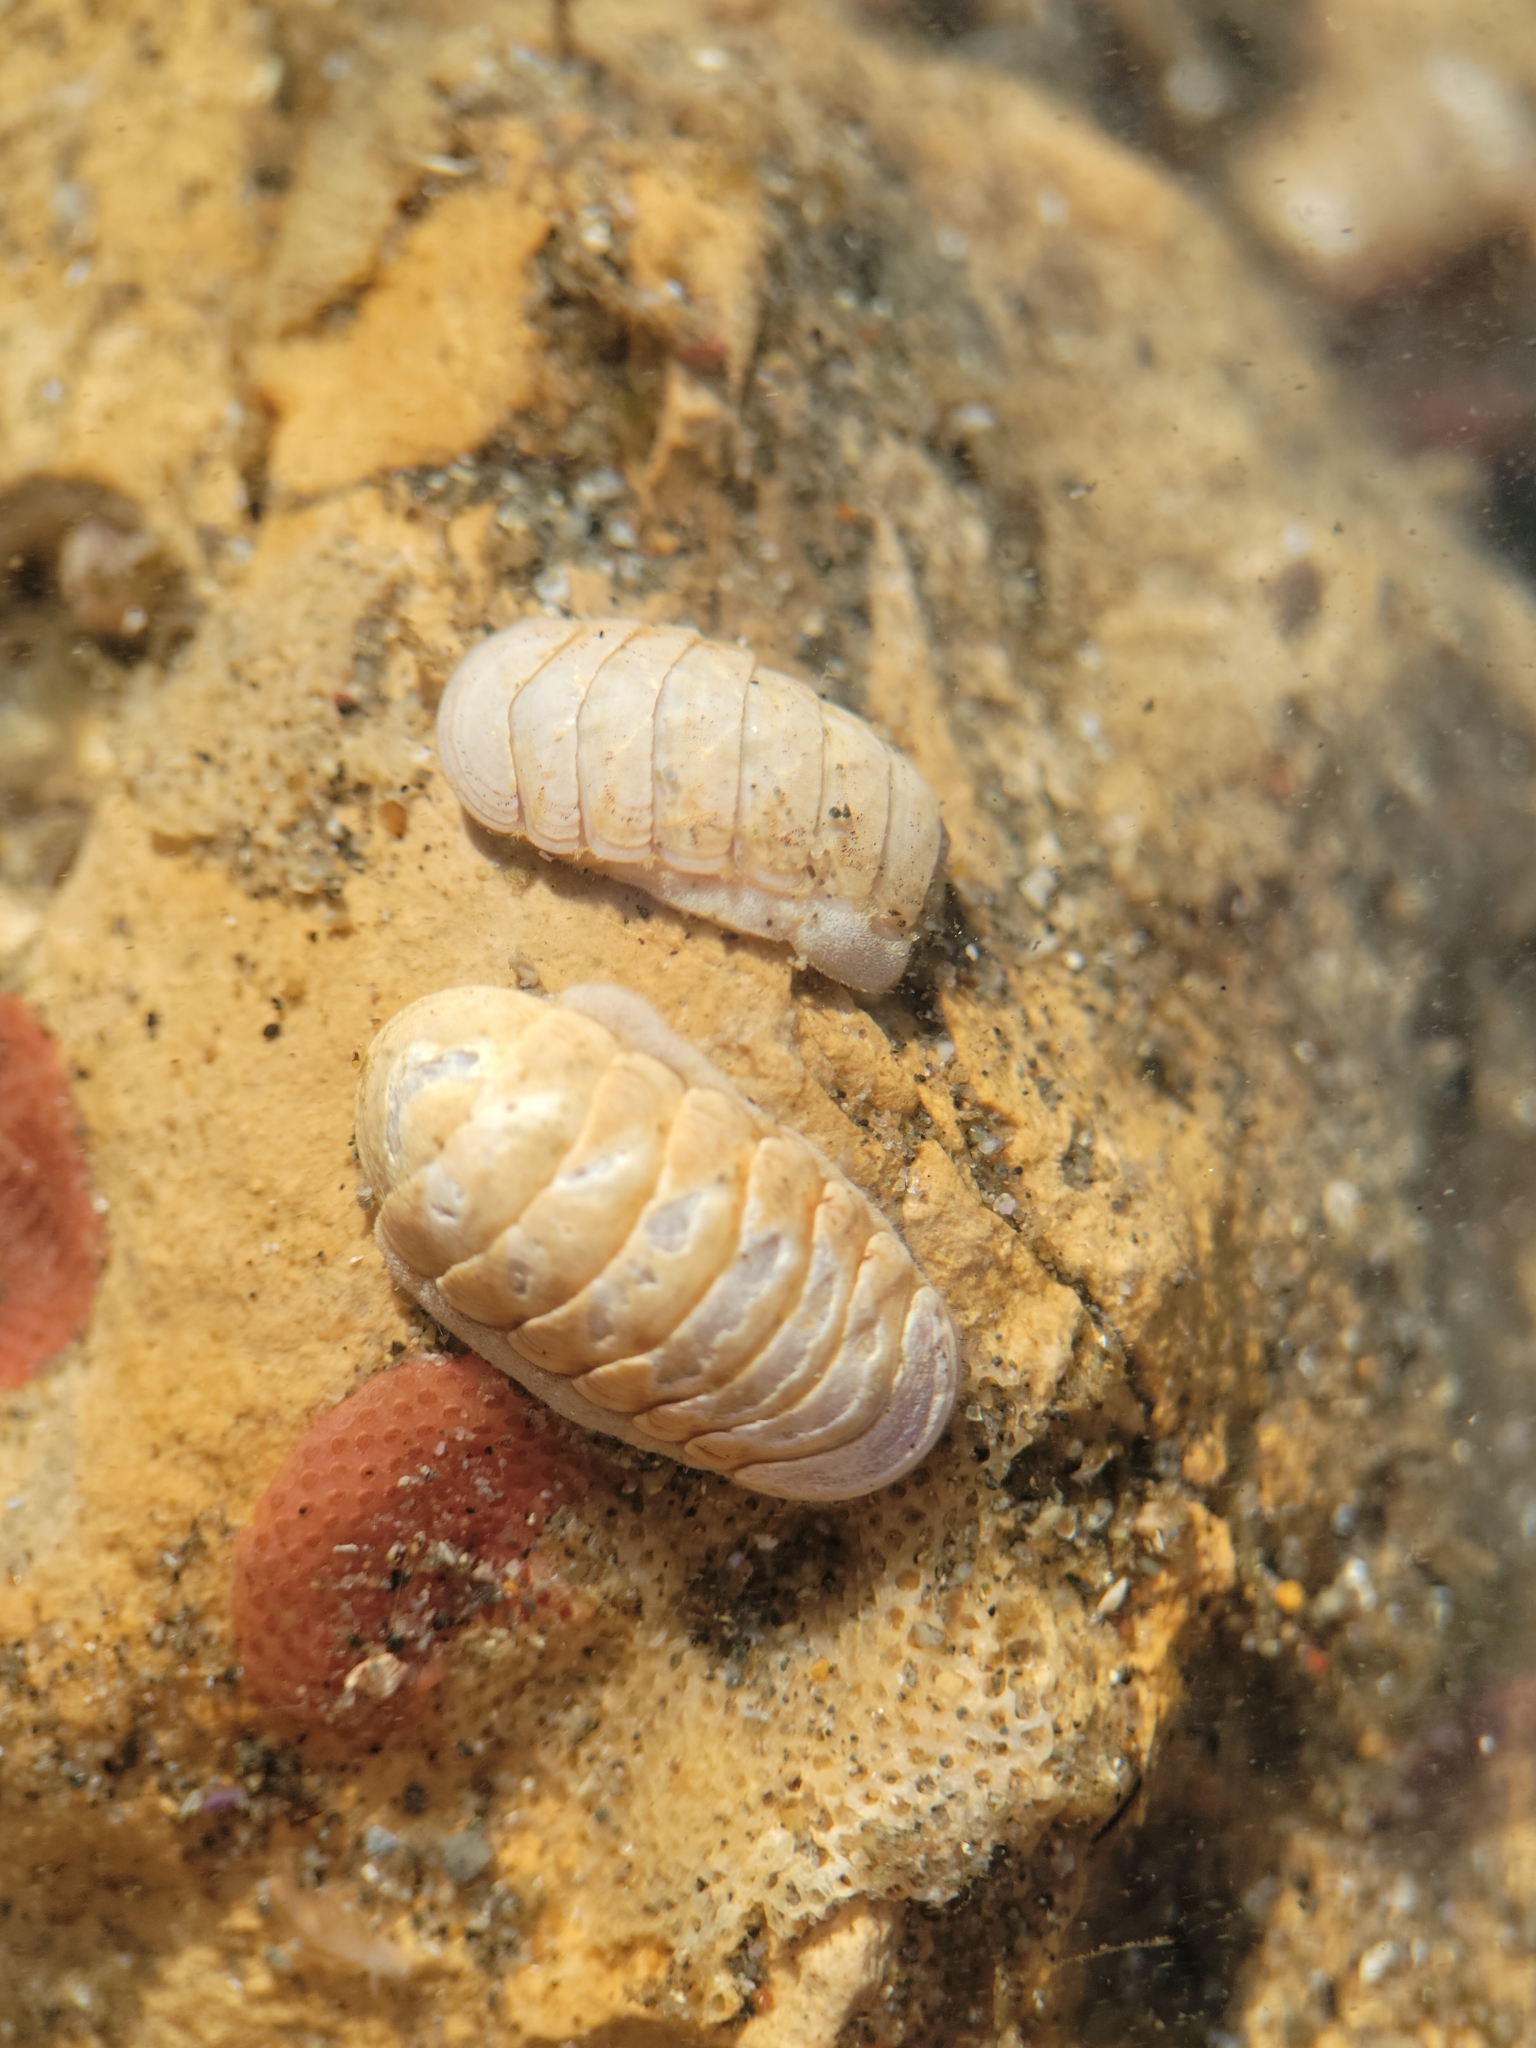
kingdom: Animalia
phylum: Mollusca
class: Polyplacophora
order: Lepidopleurida
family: Leptochitonidae
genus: Leptochiton
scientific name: Leptochiton rugatus
